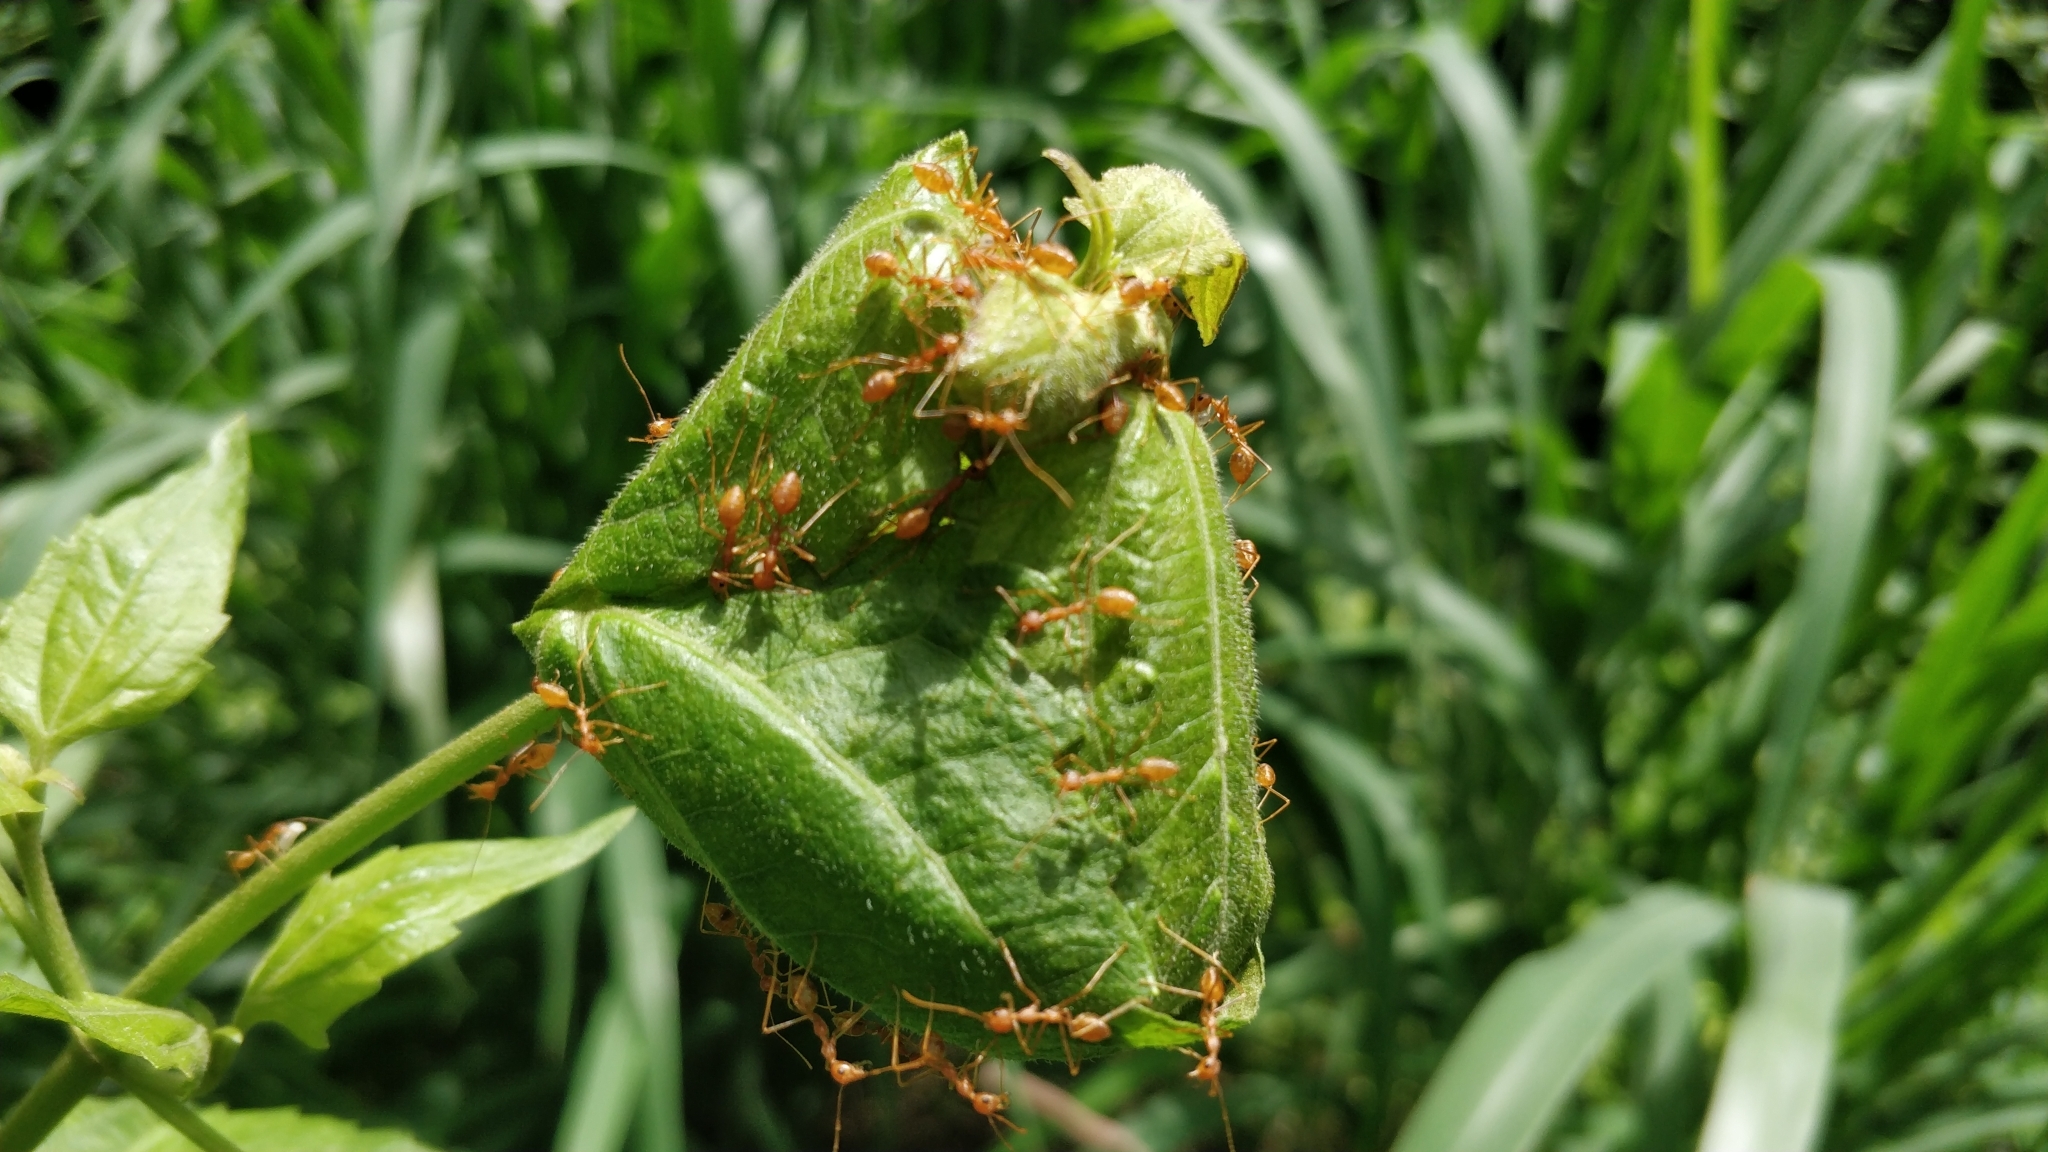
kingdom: Animalia
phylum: Arthropoda
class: Insecta
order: Hymenoptera
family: Formicidae
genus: Oecophylla
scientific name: Oecophylla smaragdina
